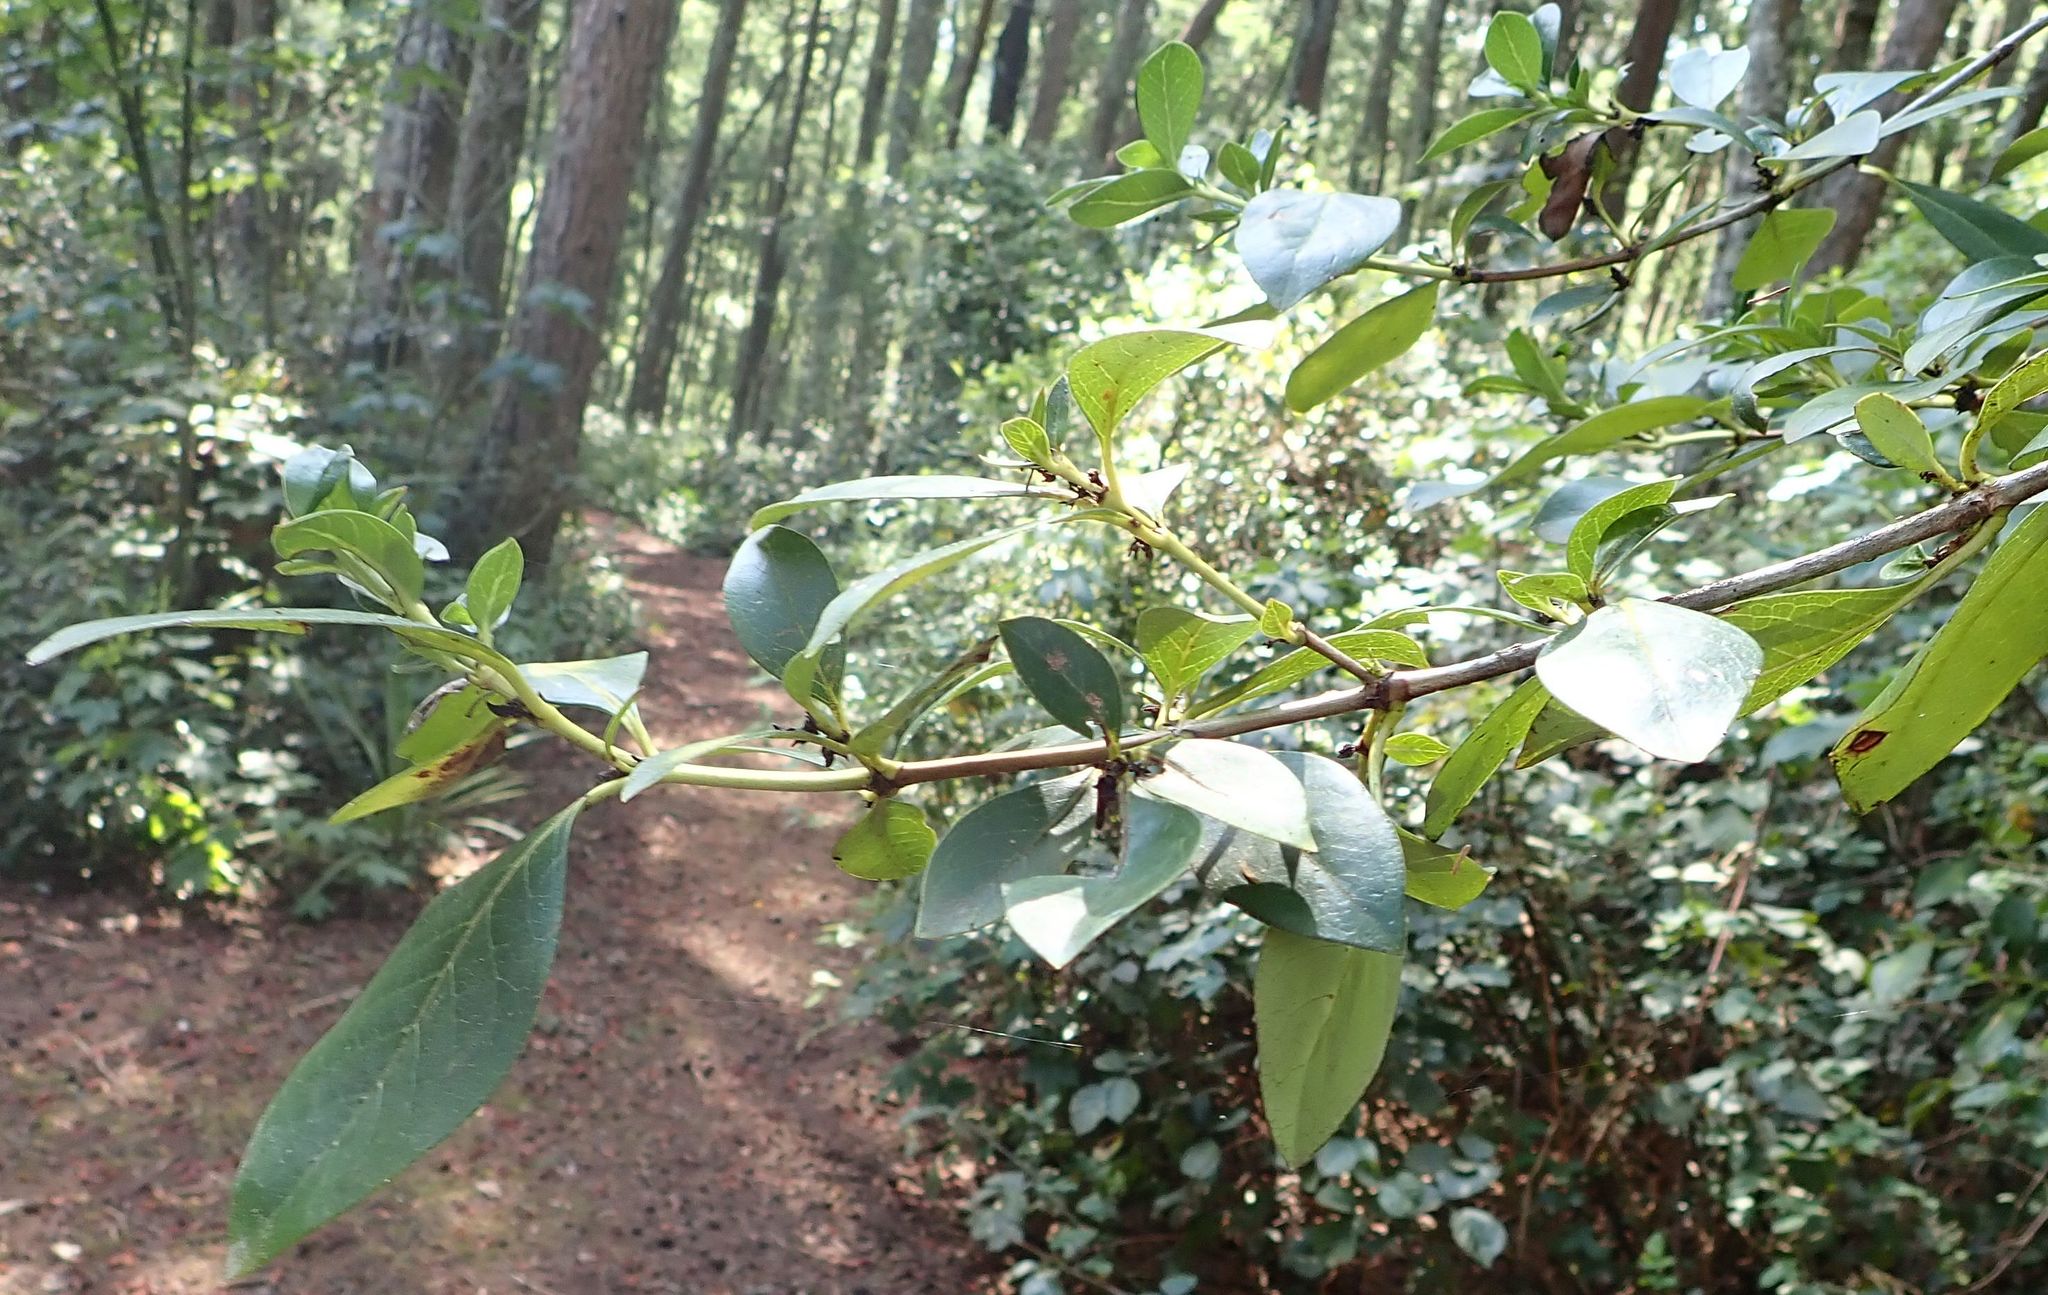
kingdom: Plantae
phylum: Tracheophyta
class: Magnoliopsida
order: Gentianales
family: Rubiaceae
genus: Coprosma
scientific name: Coprosma robusta
